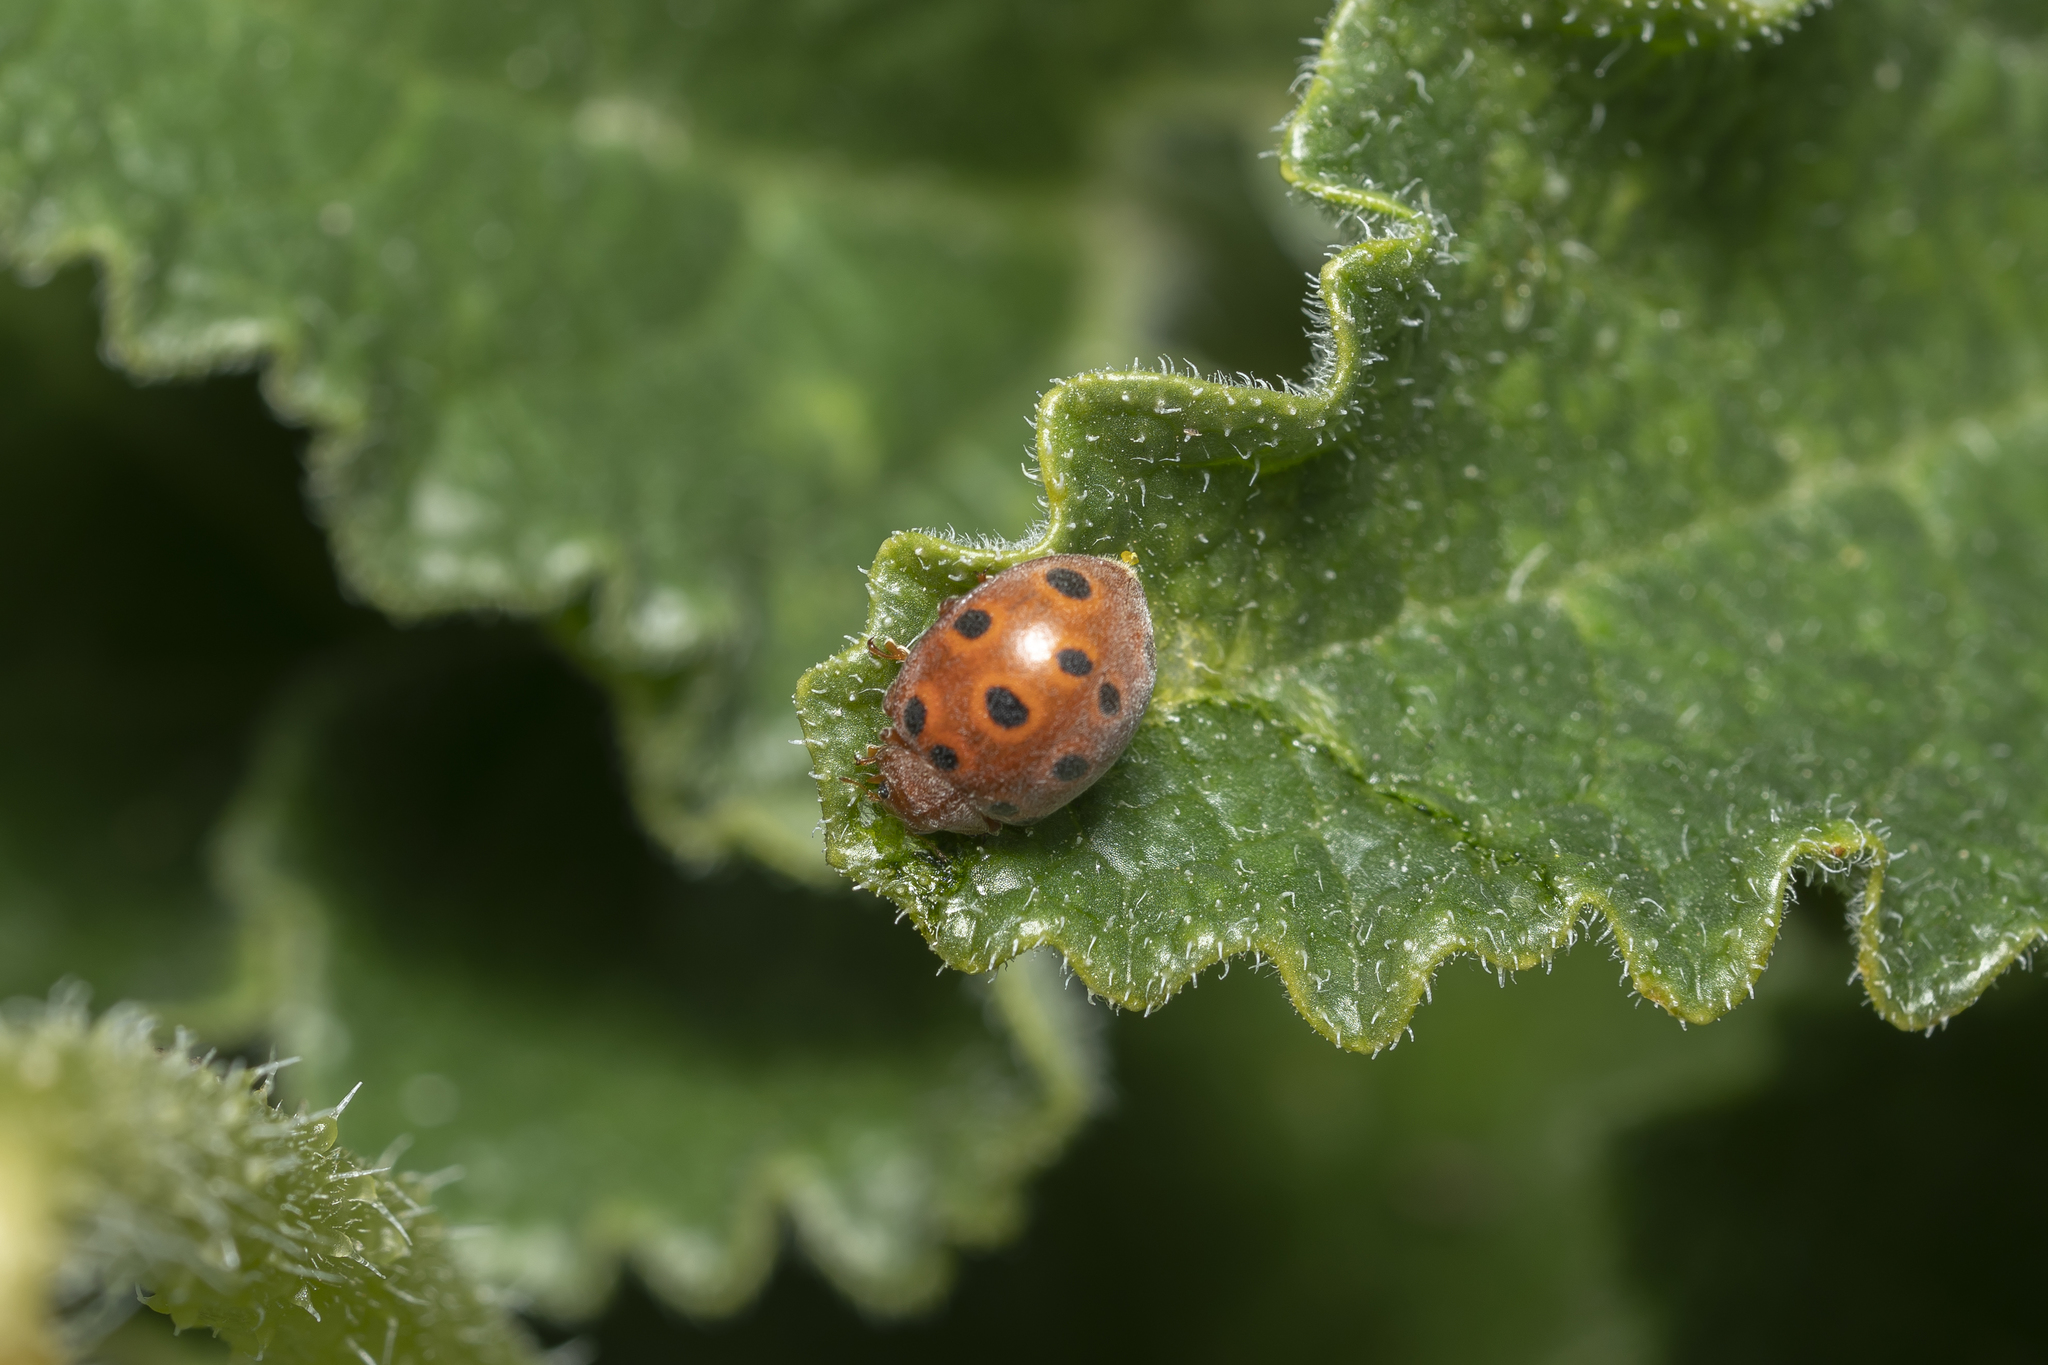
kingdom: Animalia
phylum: Arthropoda
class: Insecta
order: Coleoptera
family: Coccinellidae
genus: Chnootriba
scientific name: Chnootriba elaterii
